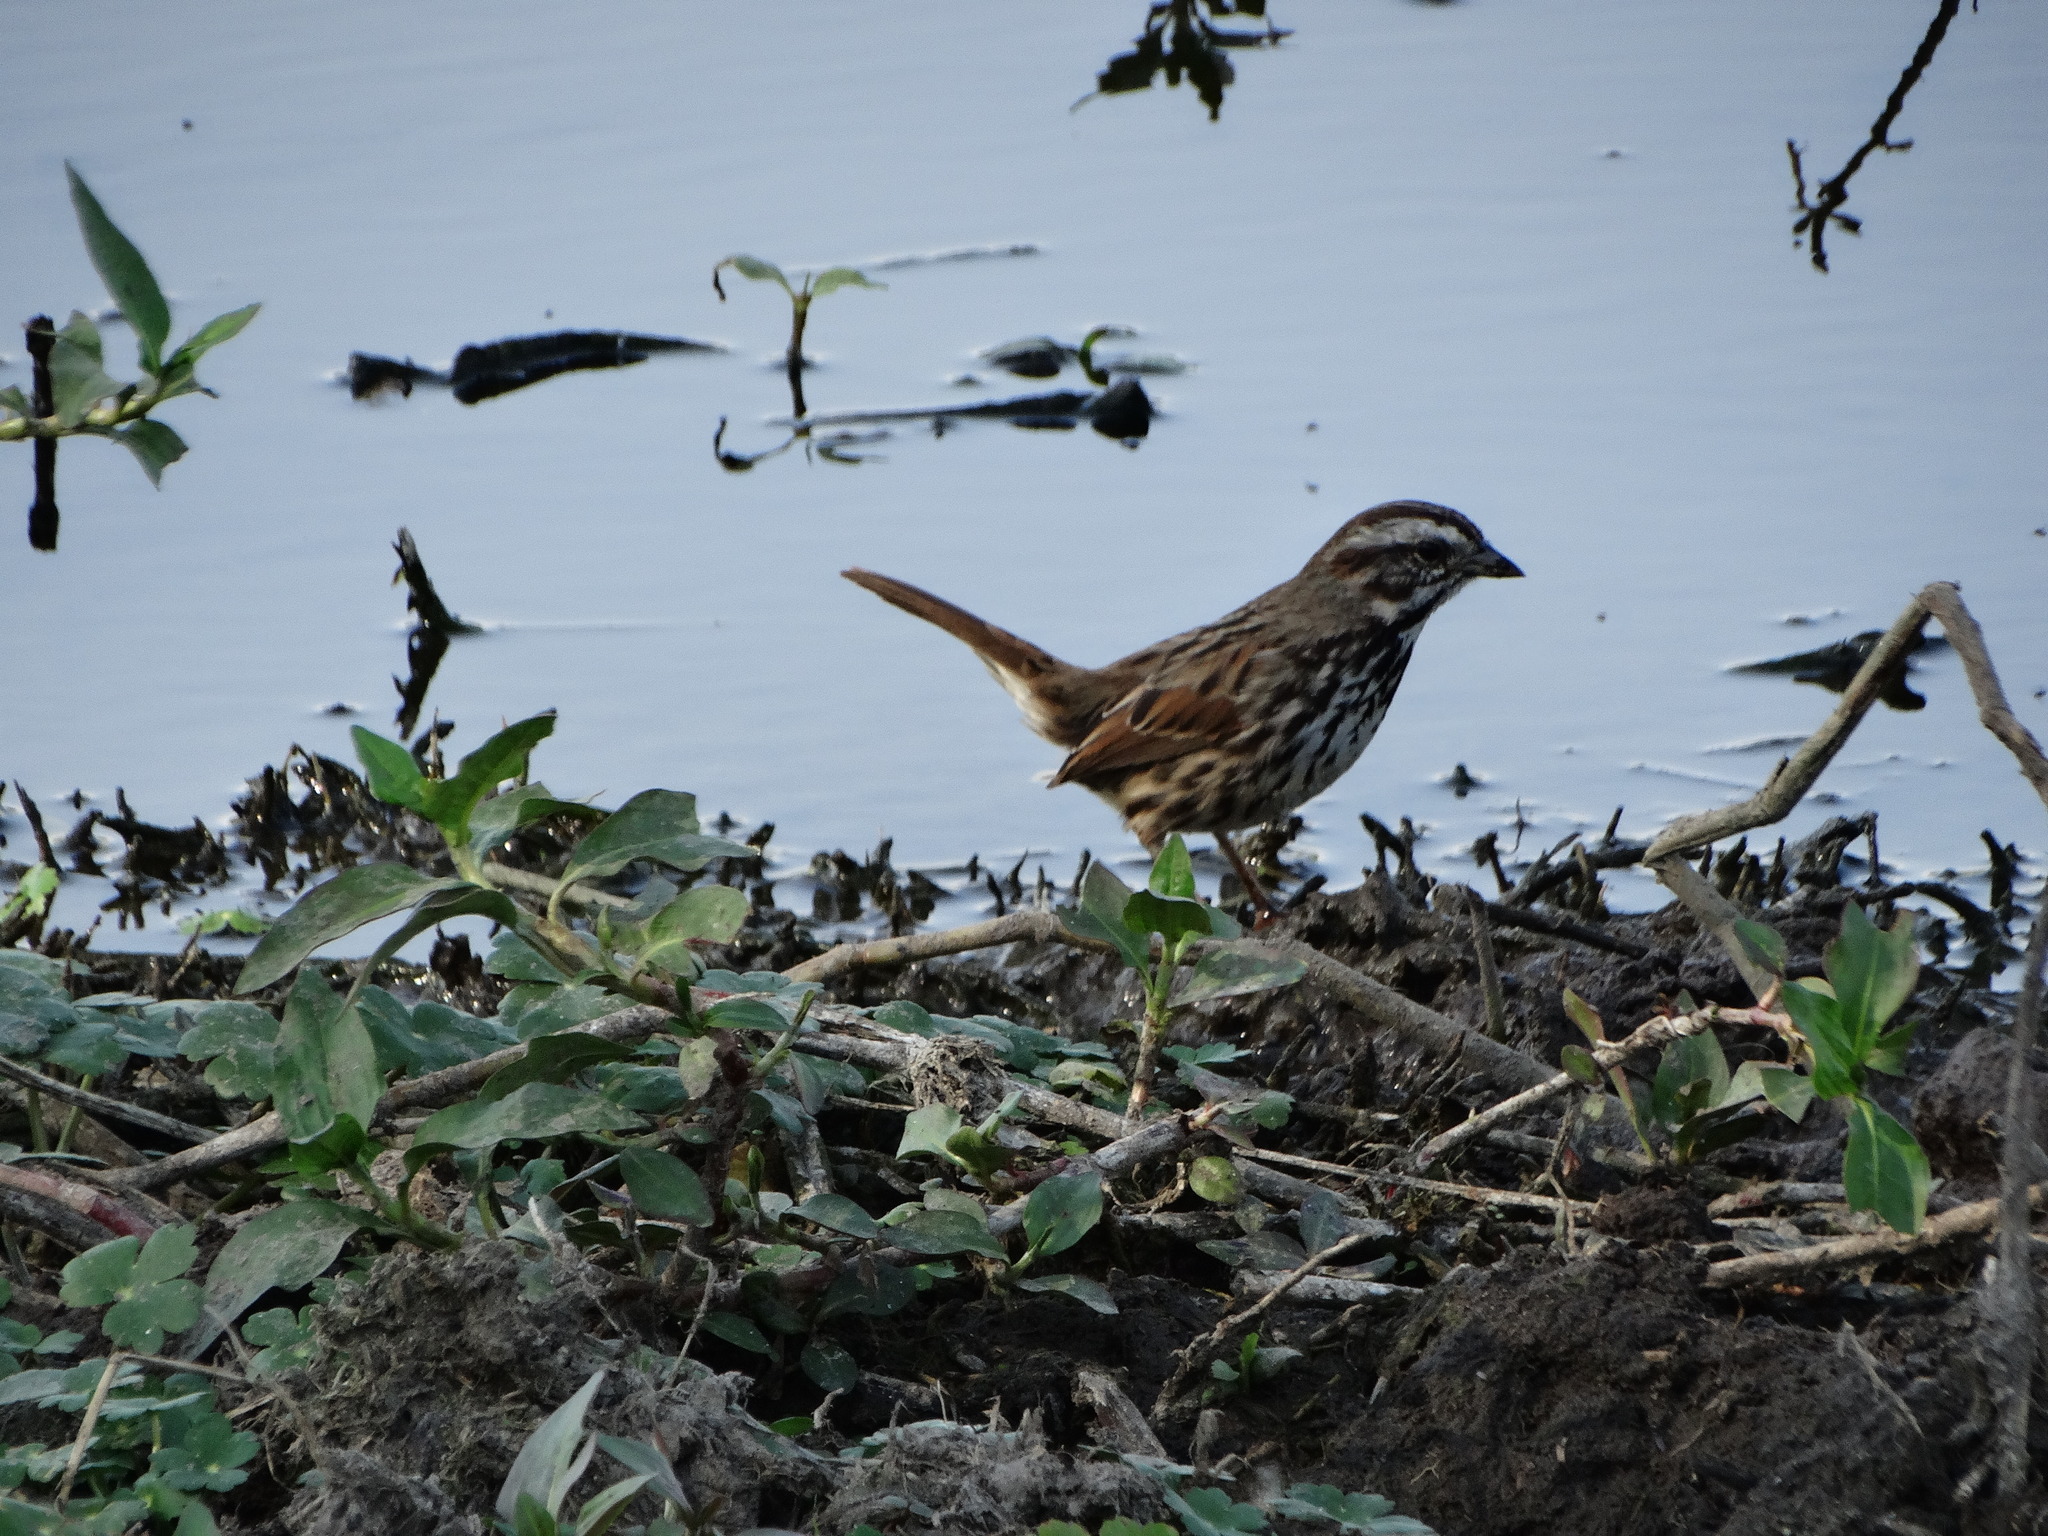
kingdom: Animalia
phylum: Chordata
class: Aves
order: Passeriformes
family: Passerellidae
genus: Melospiza
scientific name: Melospiza melodia
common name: Song sparrow
